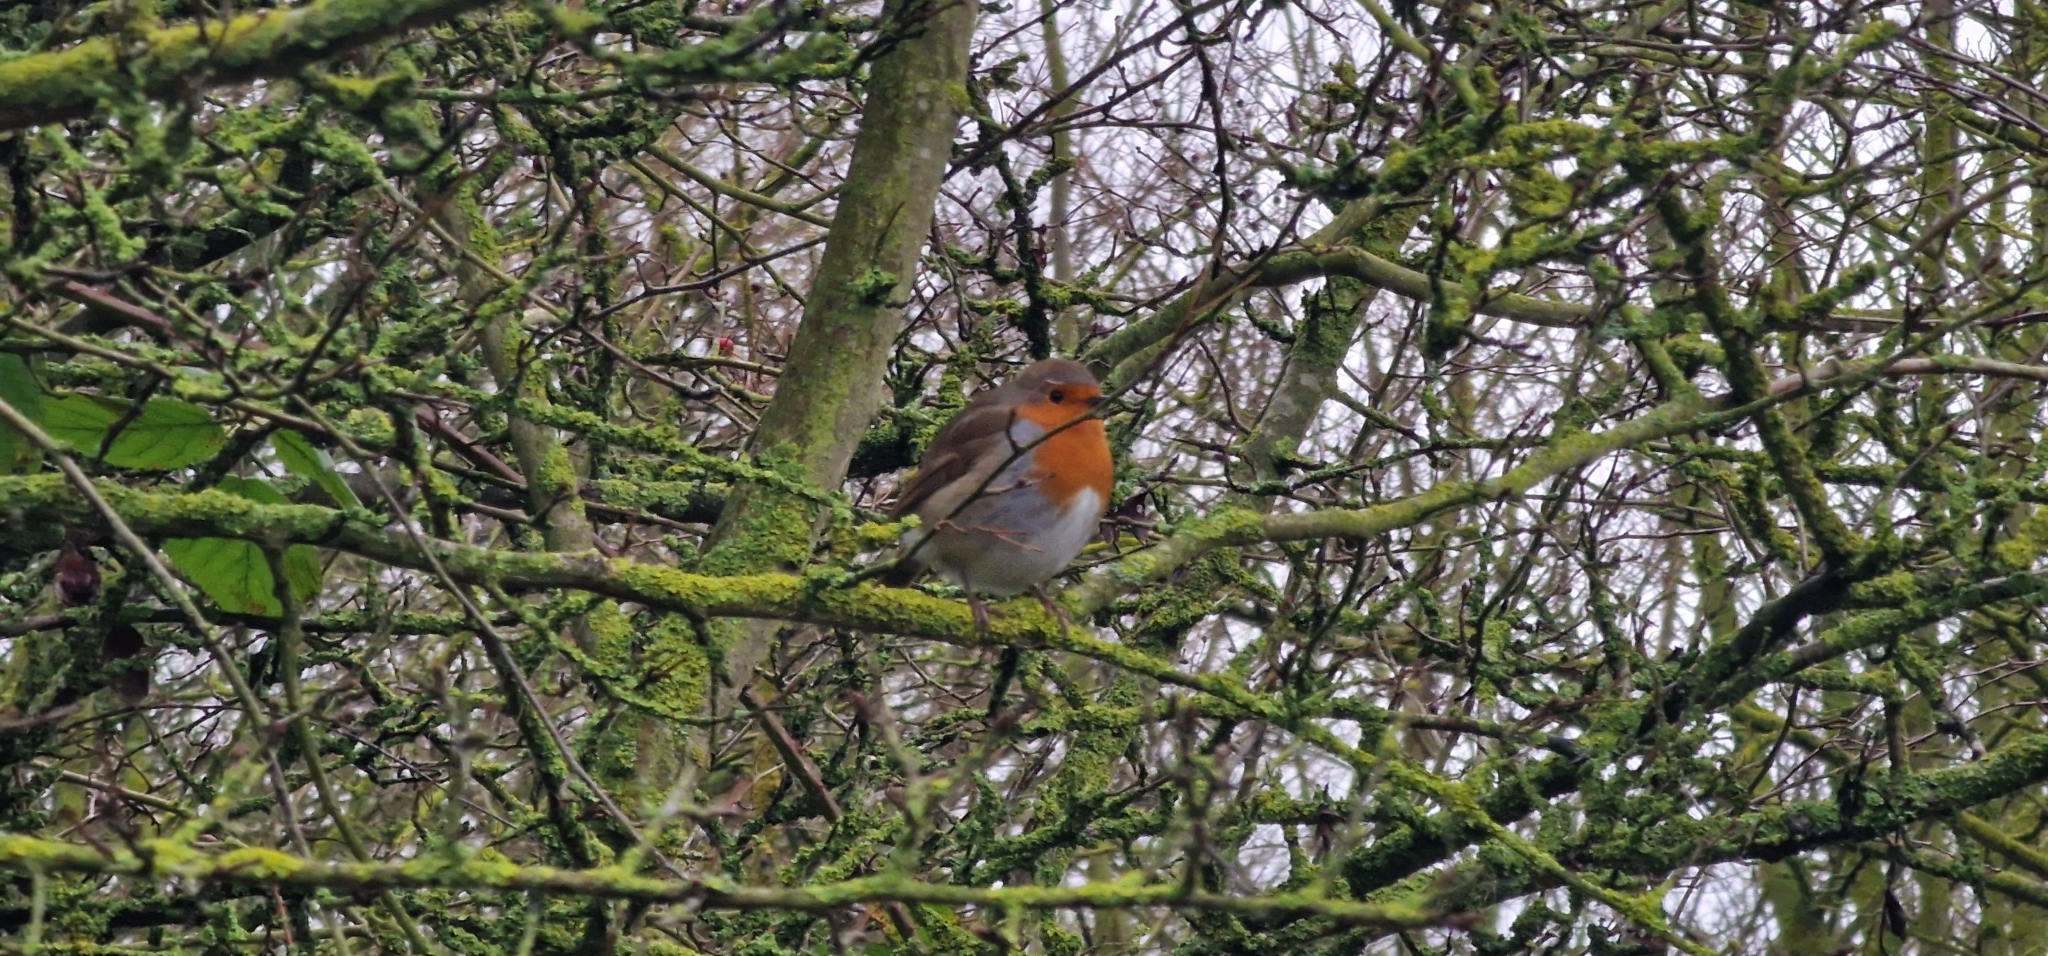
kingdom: Animalia
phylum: Chordata
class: Aves
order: Passeriformes
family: Muscicapidae
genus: Erithacus
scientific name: Erithacus rubecula
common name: European robin
